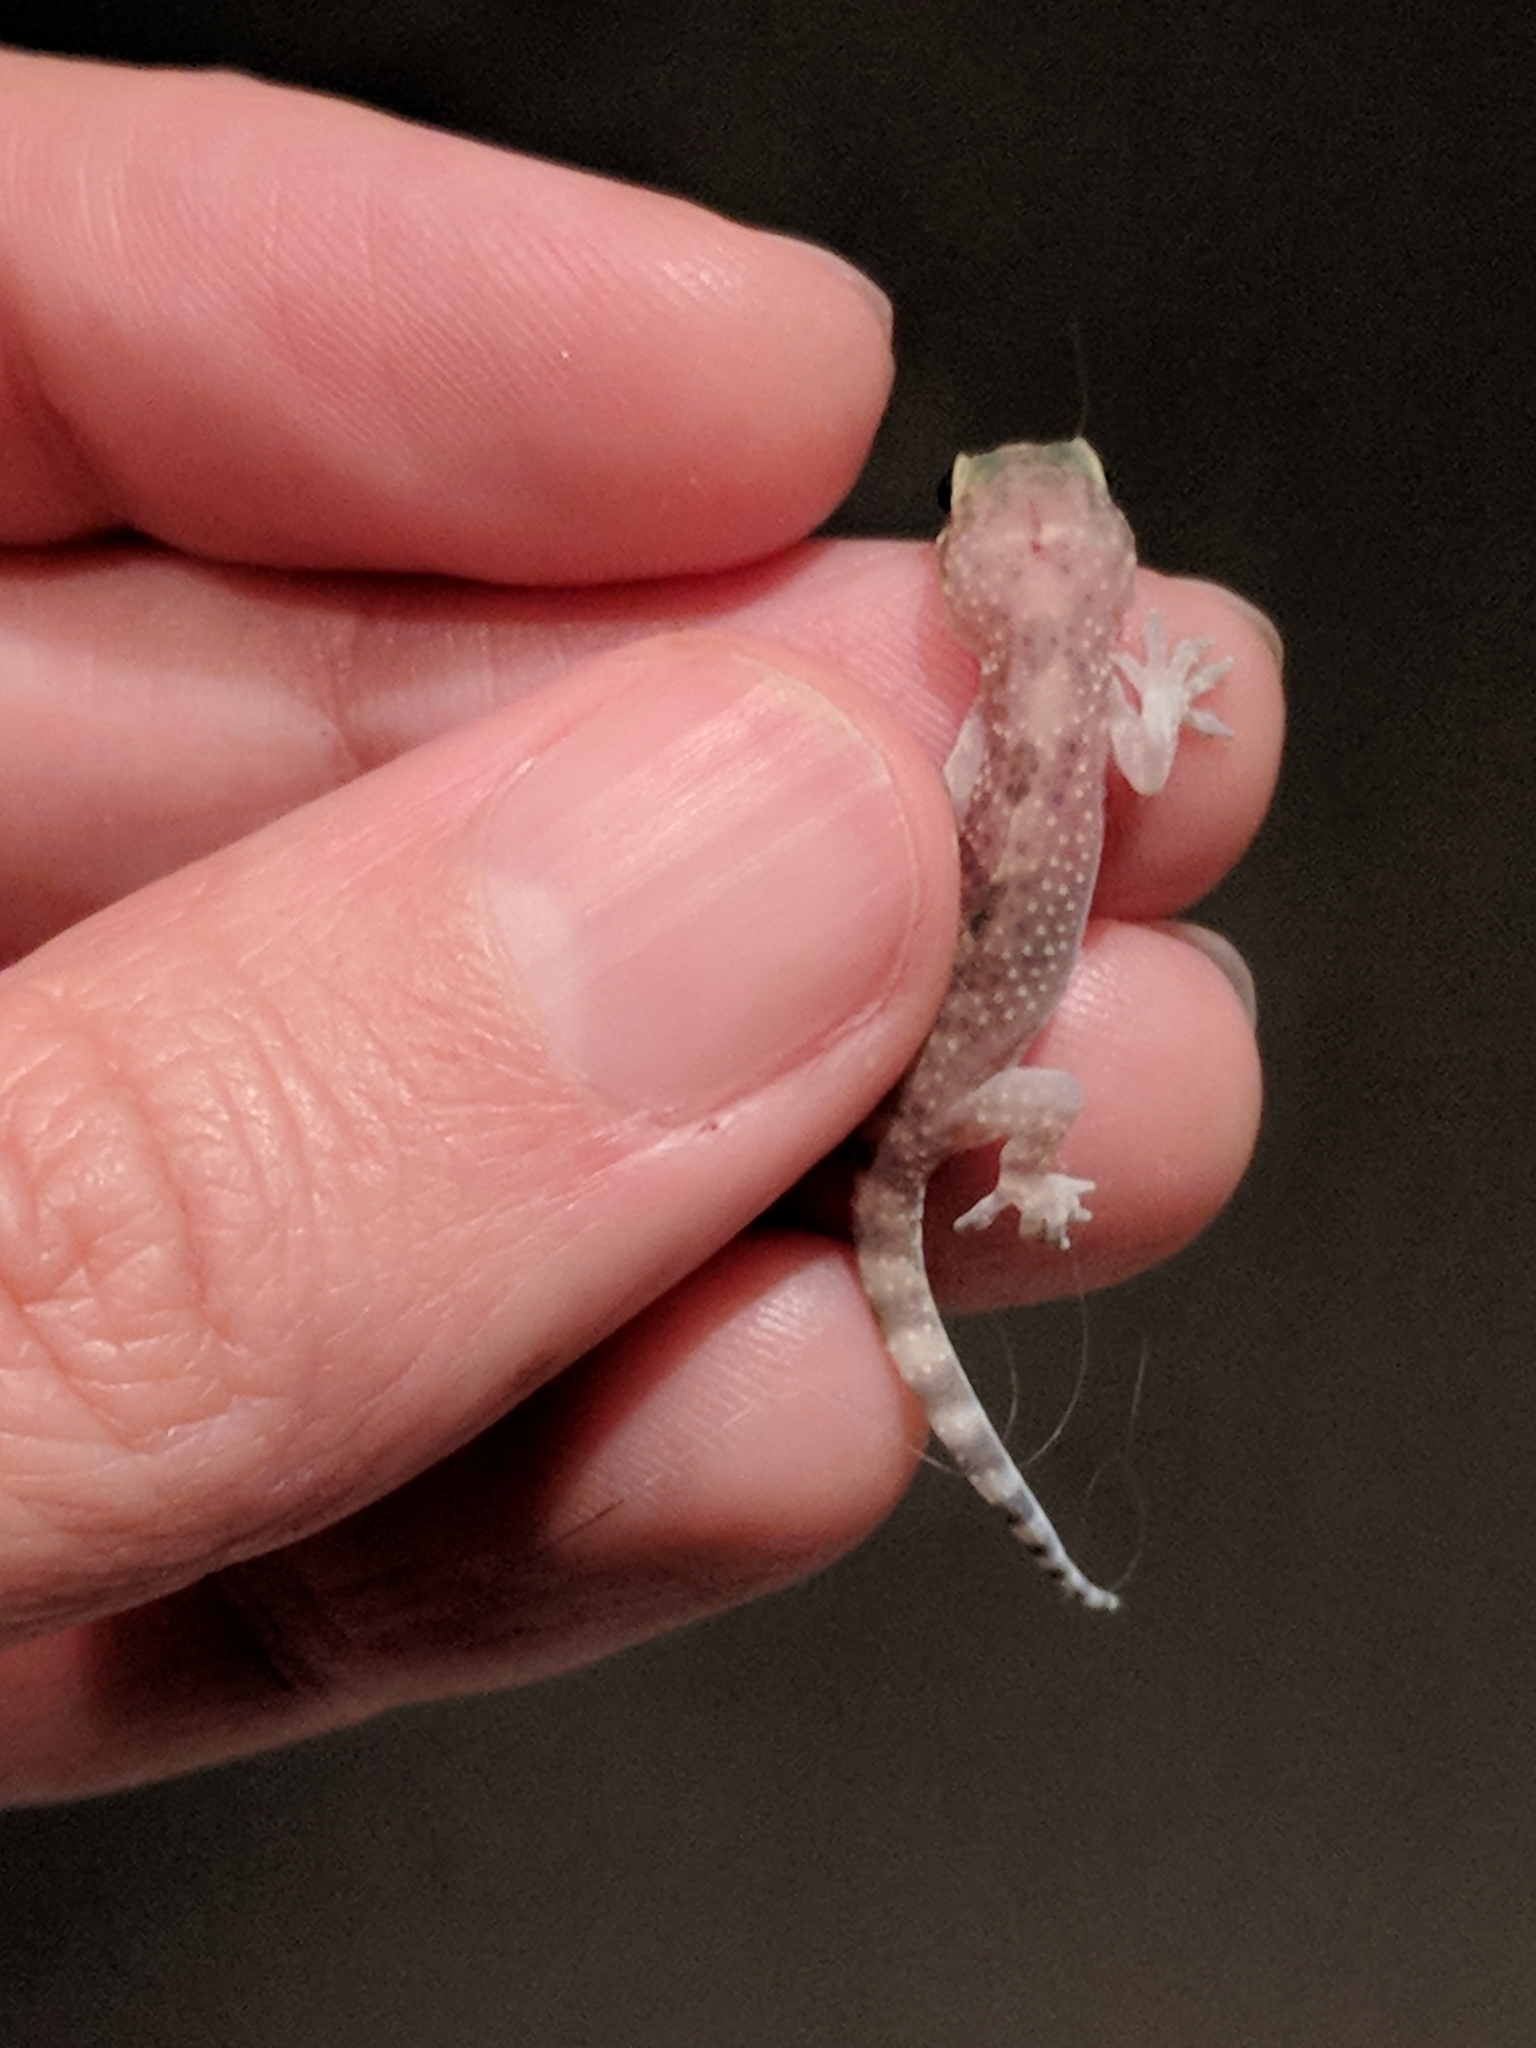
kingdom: Animalia
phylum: Chordata
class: Squamata
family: Gekkonidae
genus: Hemidactylus
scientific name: Hemidactylus turcicus
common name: Turkish gecko
